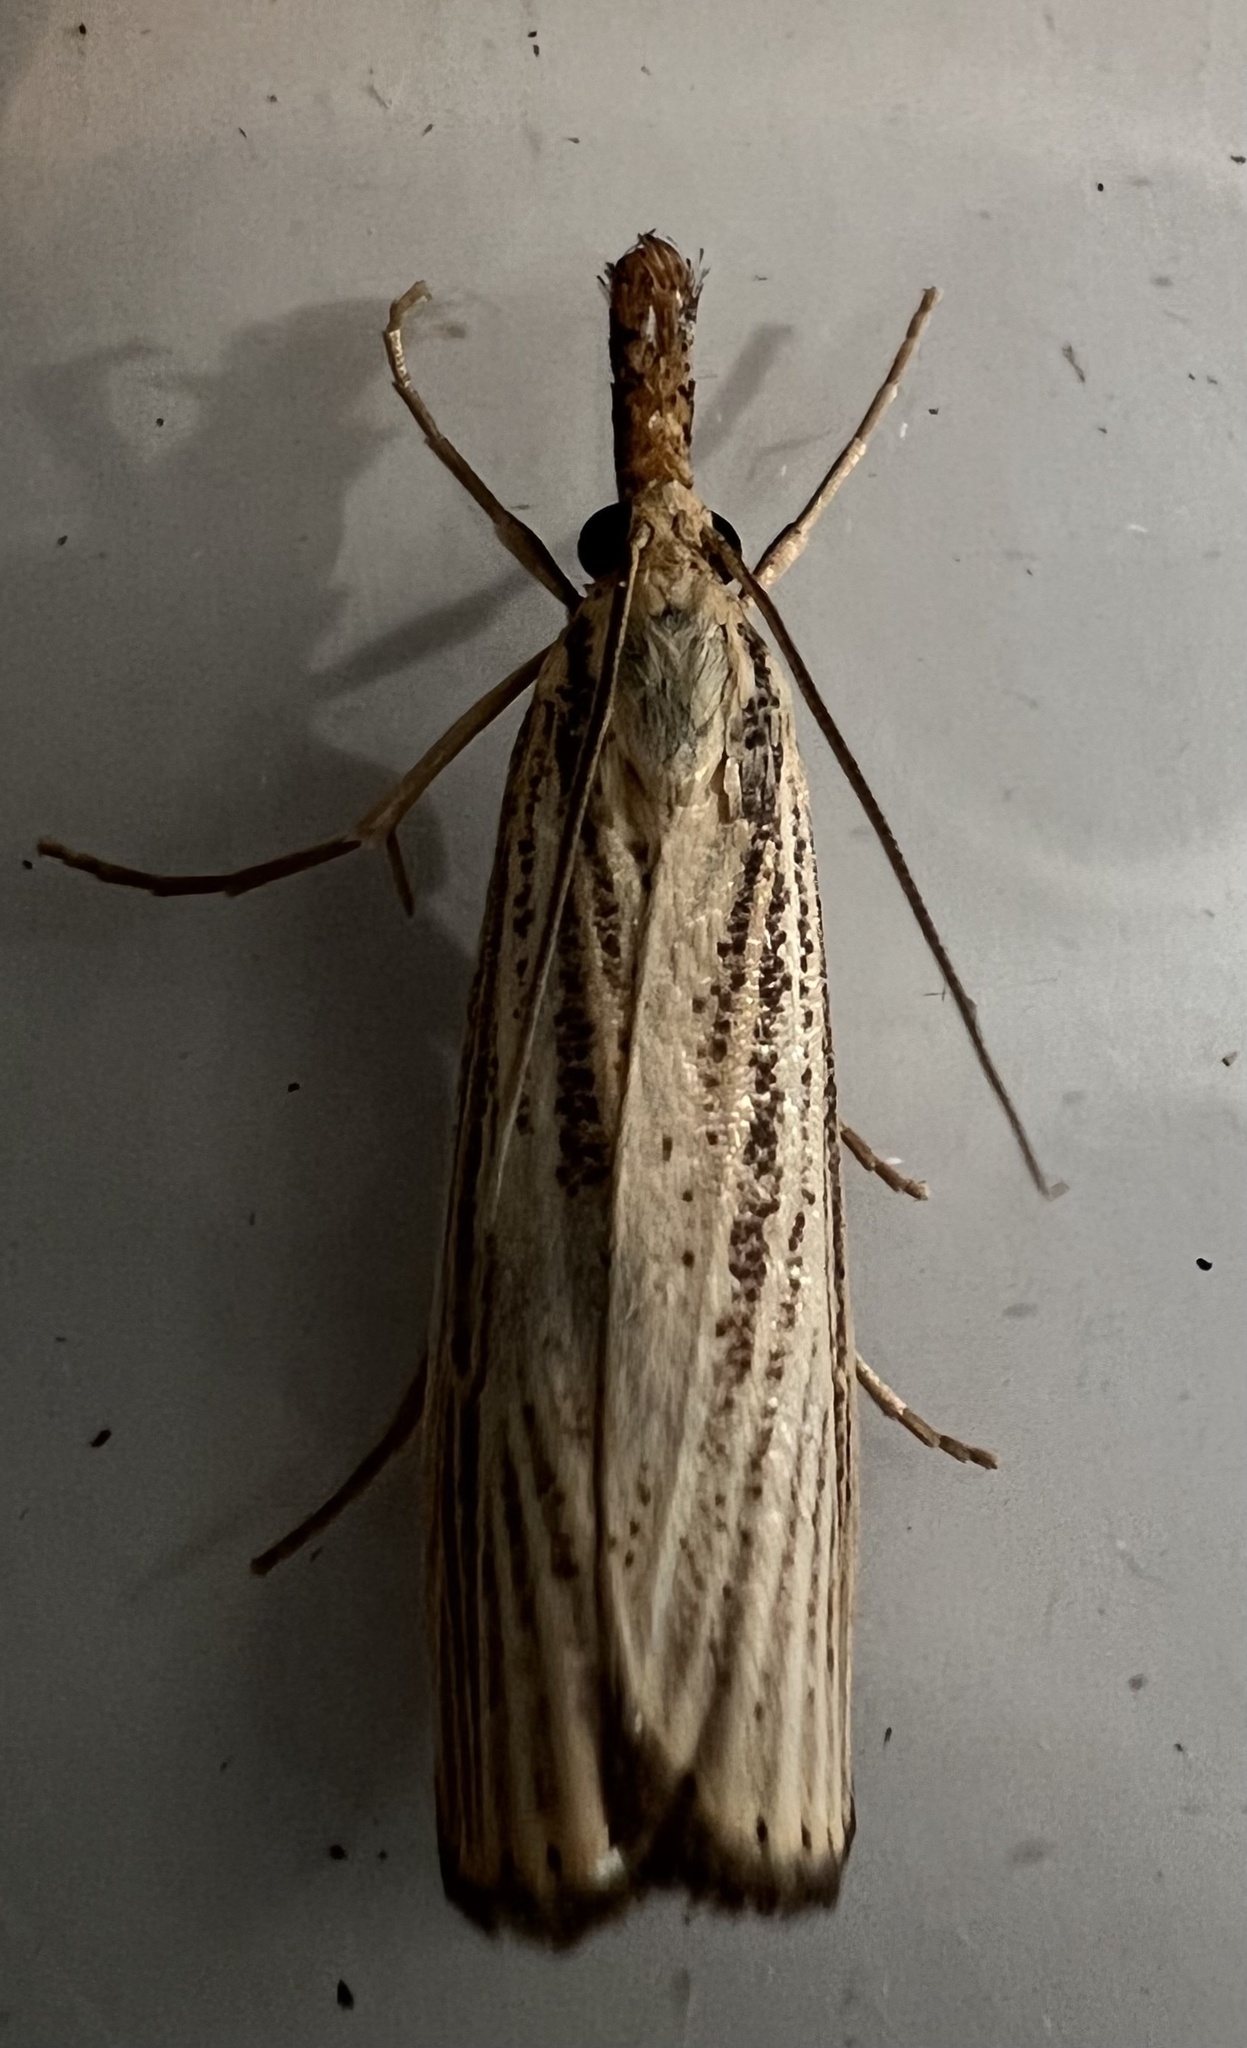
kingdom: Animalia
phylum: Arthropoda
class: Insecta
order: Lepidoptera
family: Crambidae
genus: Agriphila
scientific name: Agriphila vulgivagellus
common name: Vagabond crambus moth
